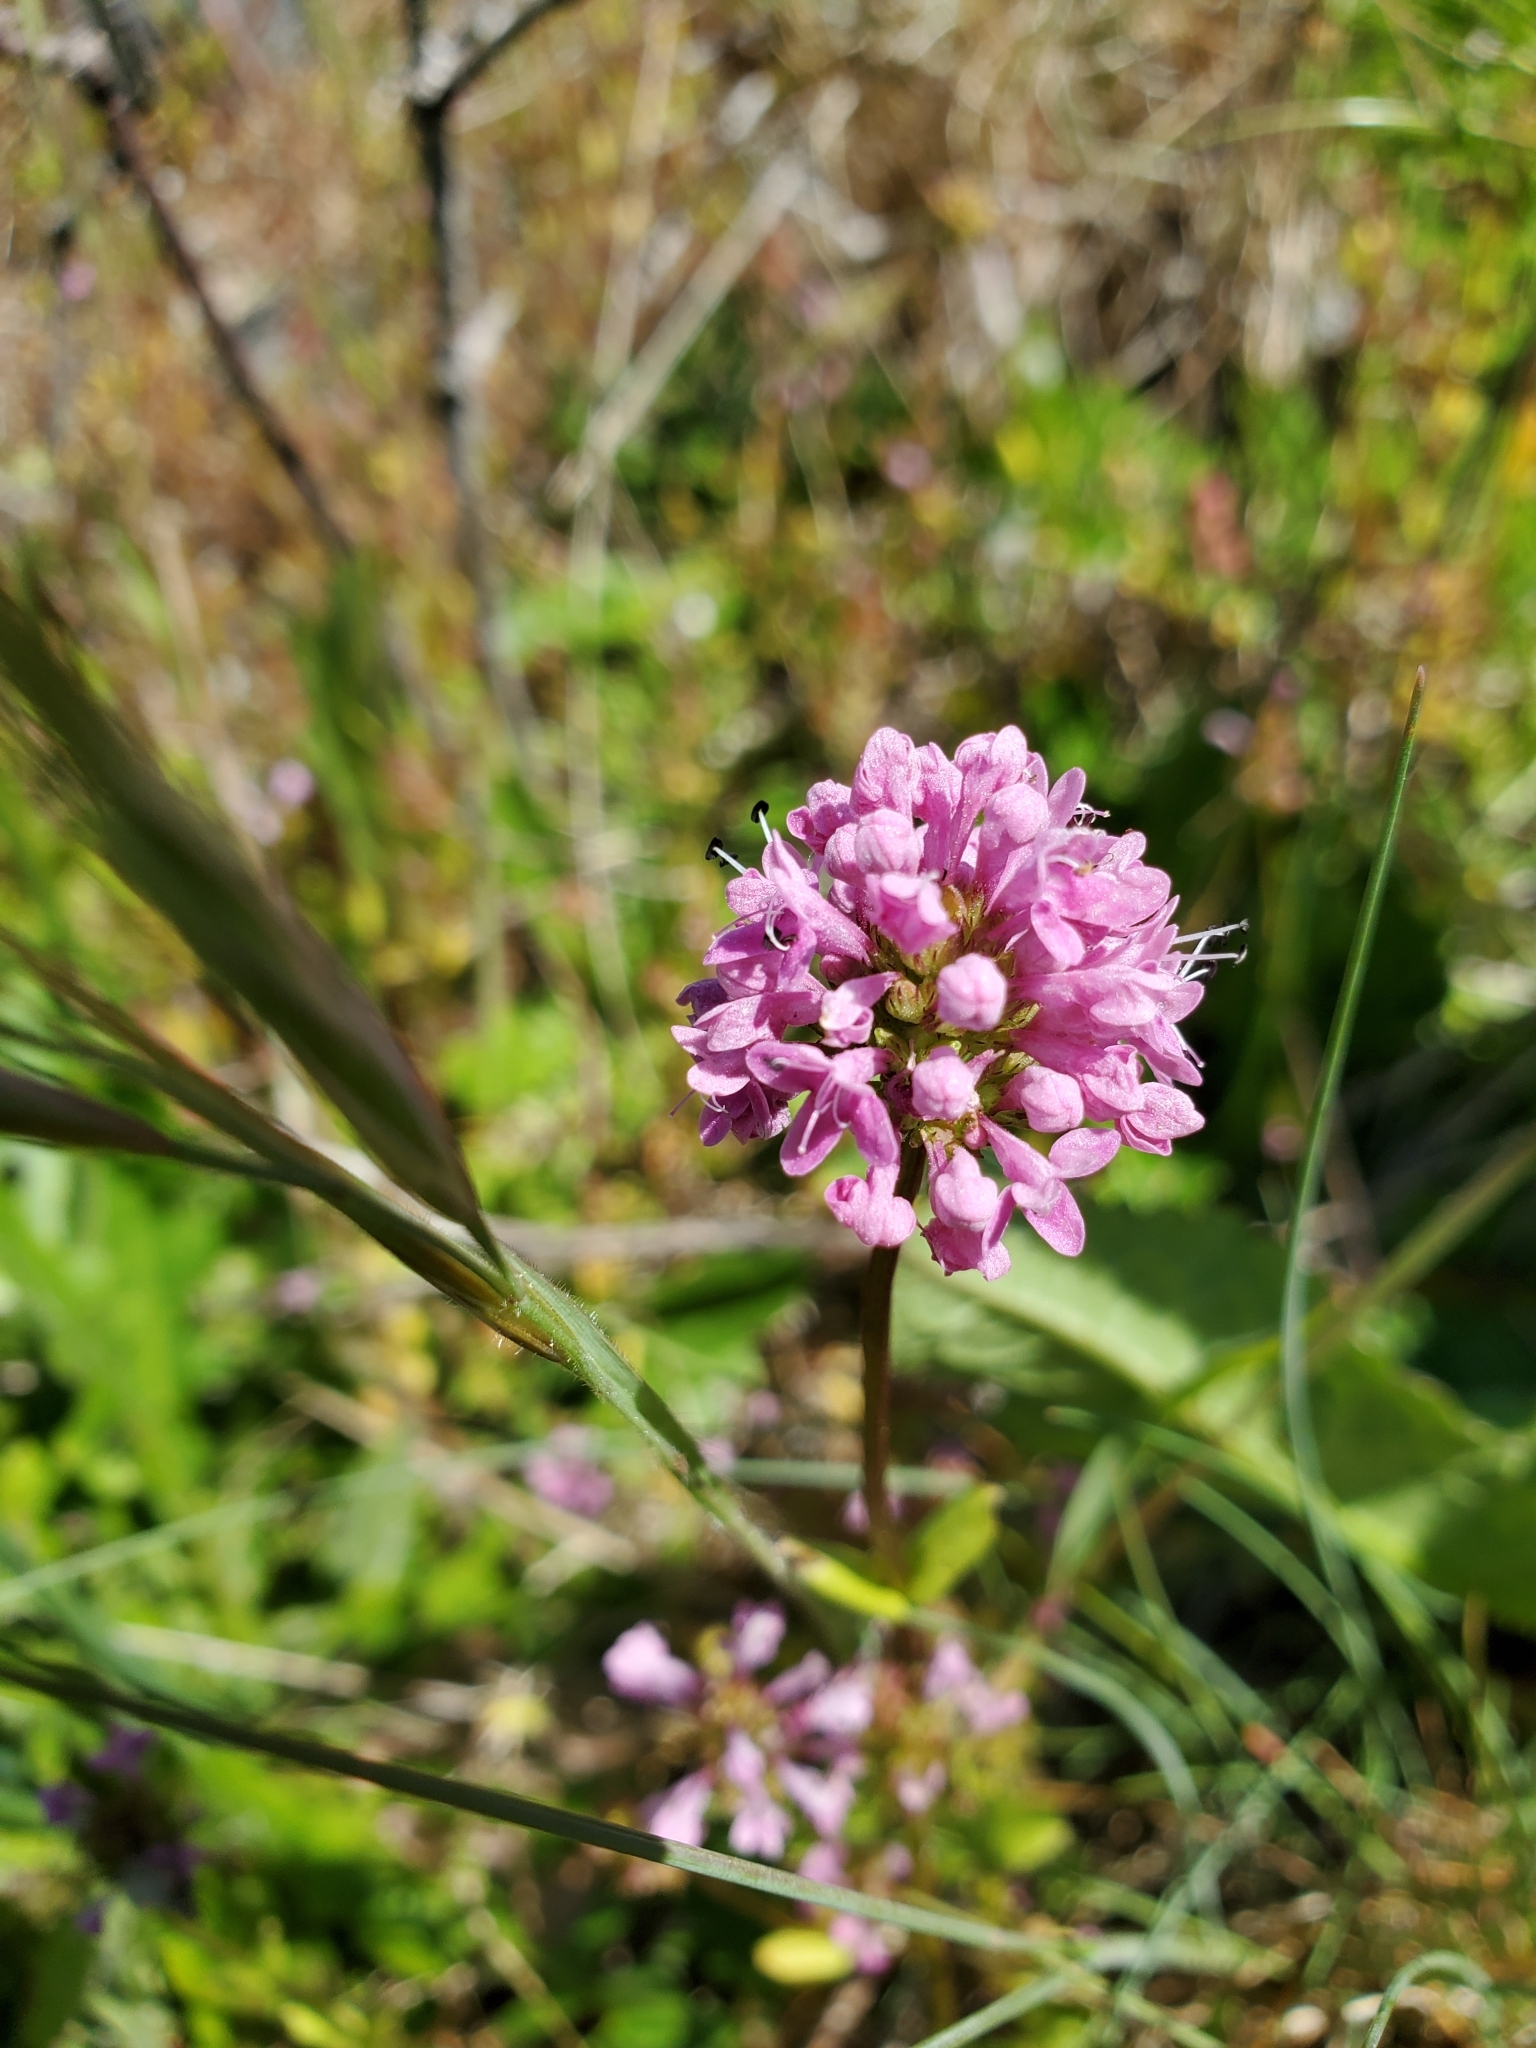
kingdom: Plantae
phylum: Tracheophyta
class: Magnoliopsida
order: Dipsacales
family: Caprifoliaceae
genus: Plectritis
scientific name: Plectritis congesta
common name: Pink plectritis
